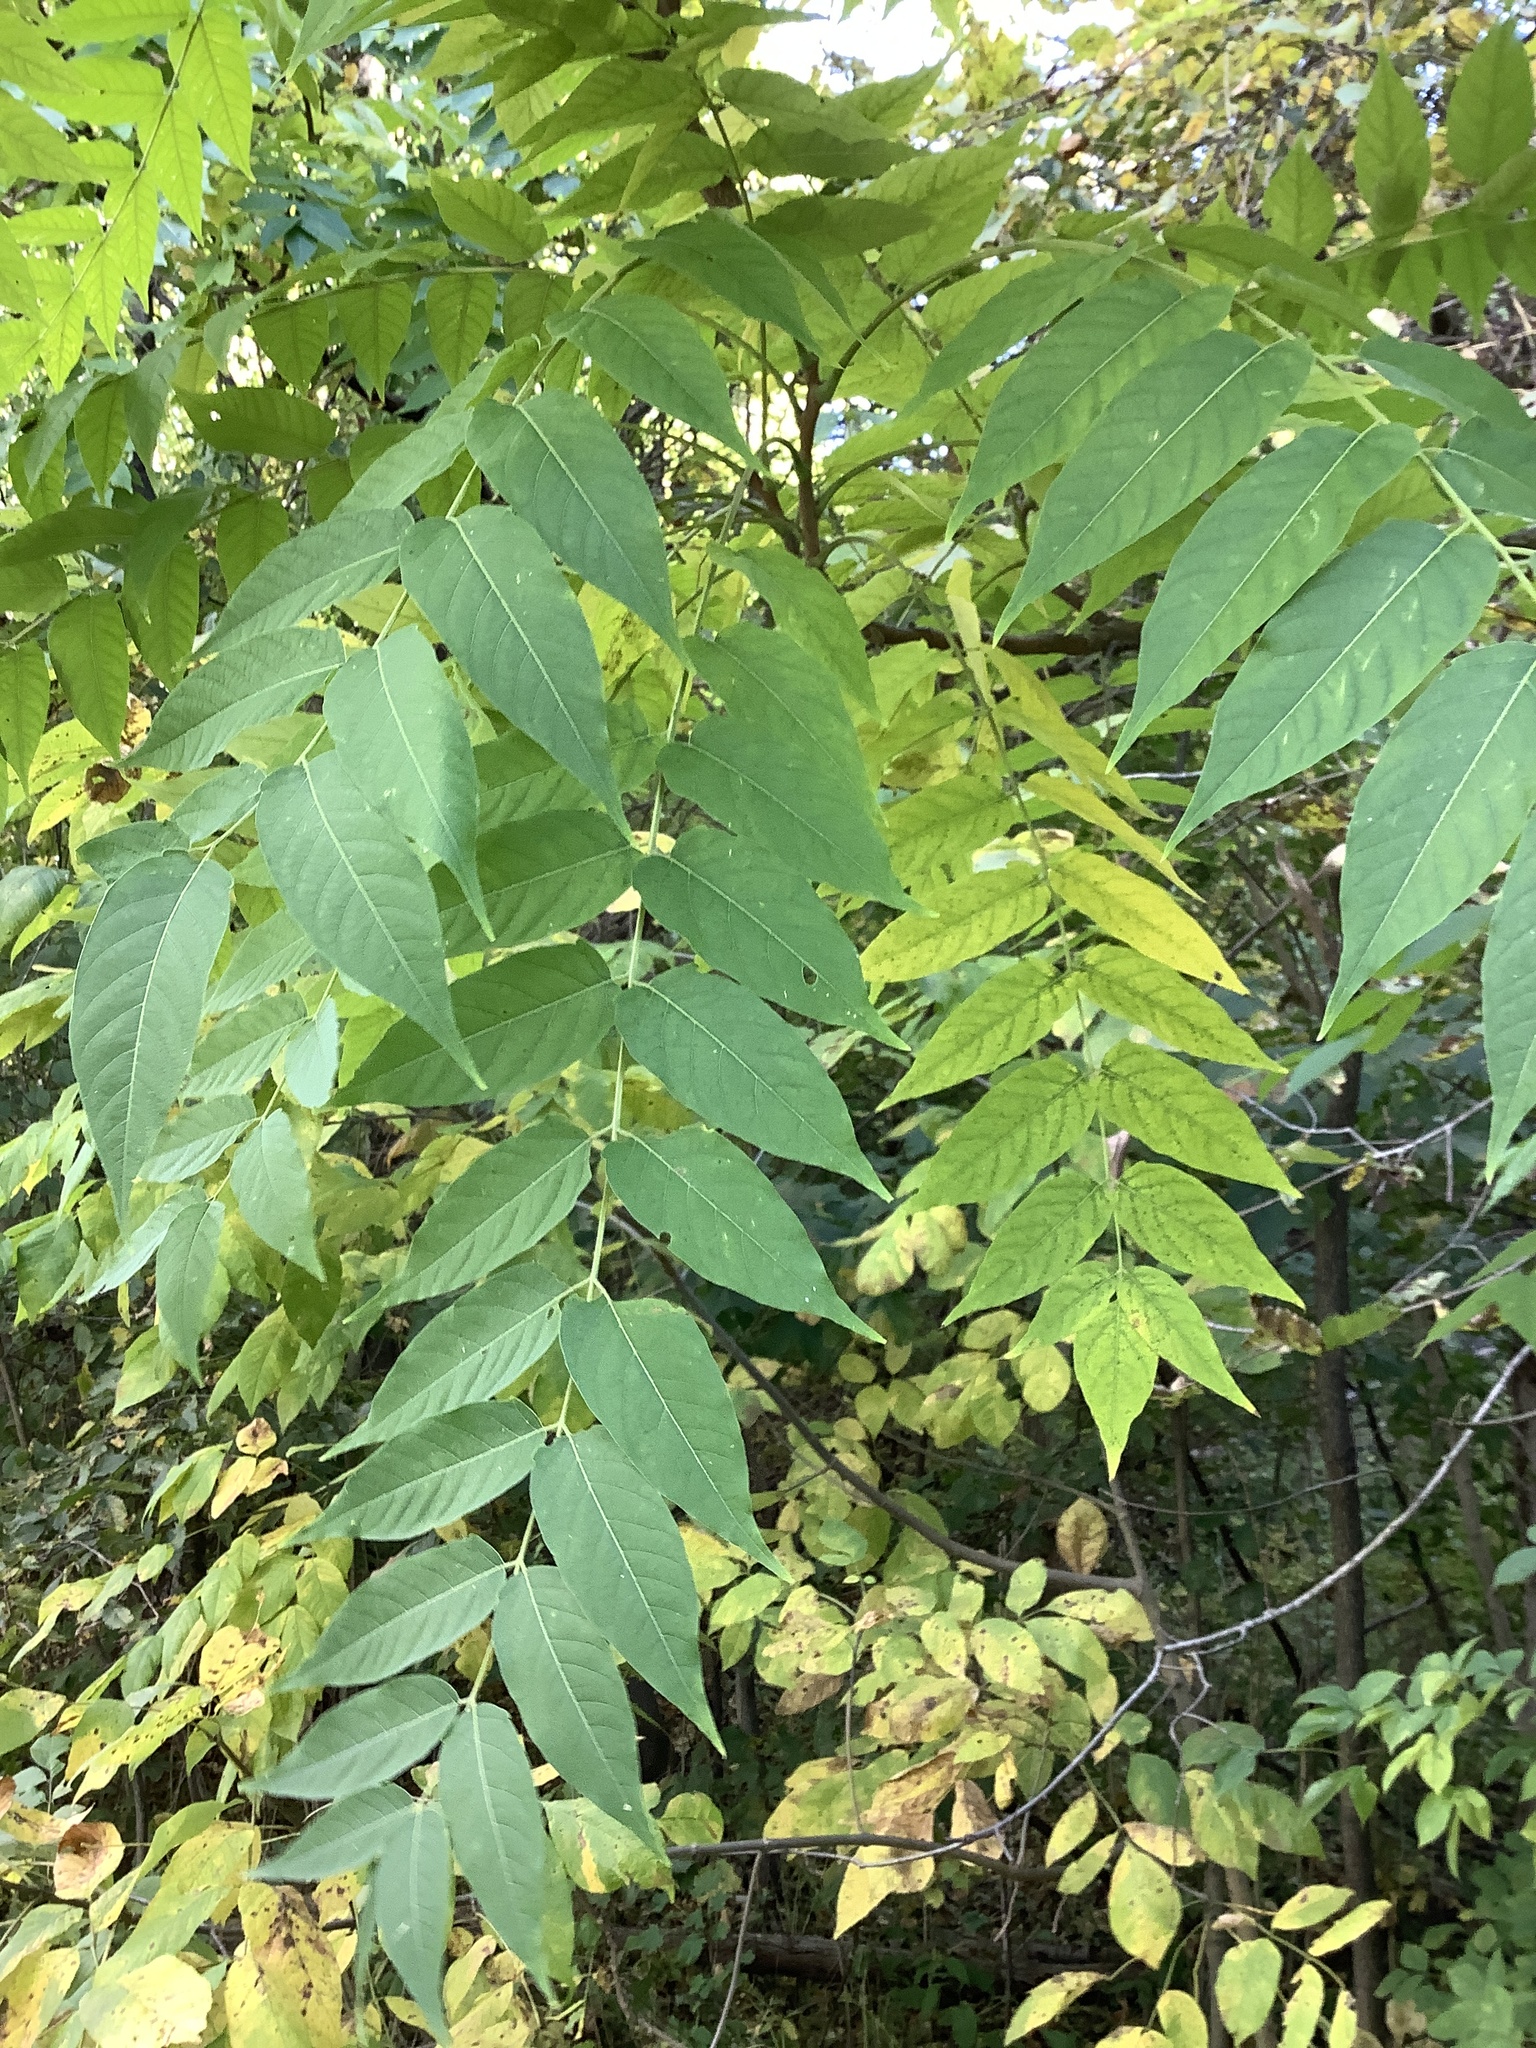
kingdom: Plantae
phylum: Tracheophyta
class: Magnoliopsida
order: Sapindales
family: Simaroubaceae
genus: Ailanthus
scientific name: Ailanthus altissima
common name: Tree-of-heaven
